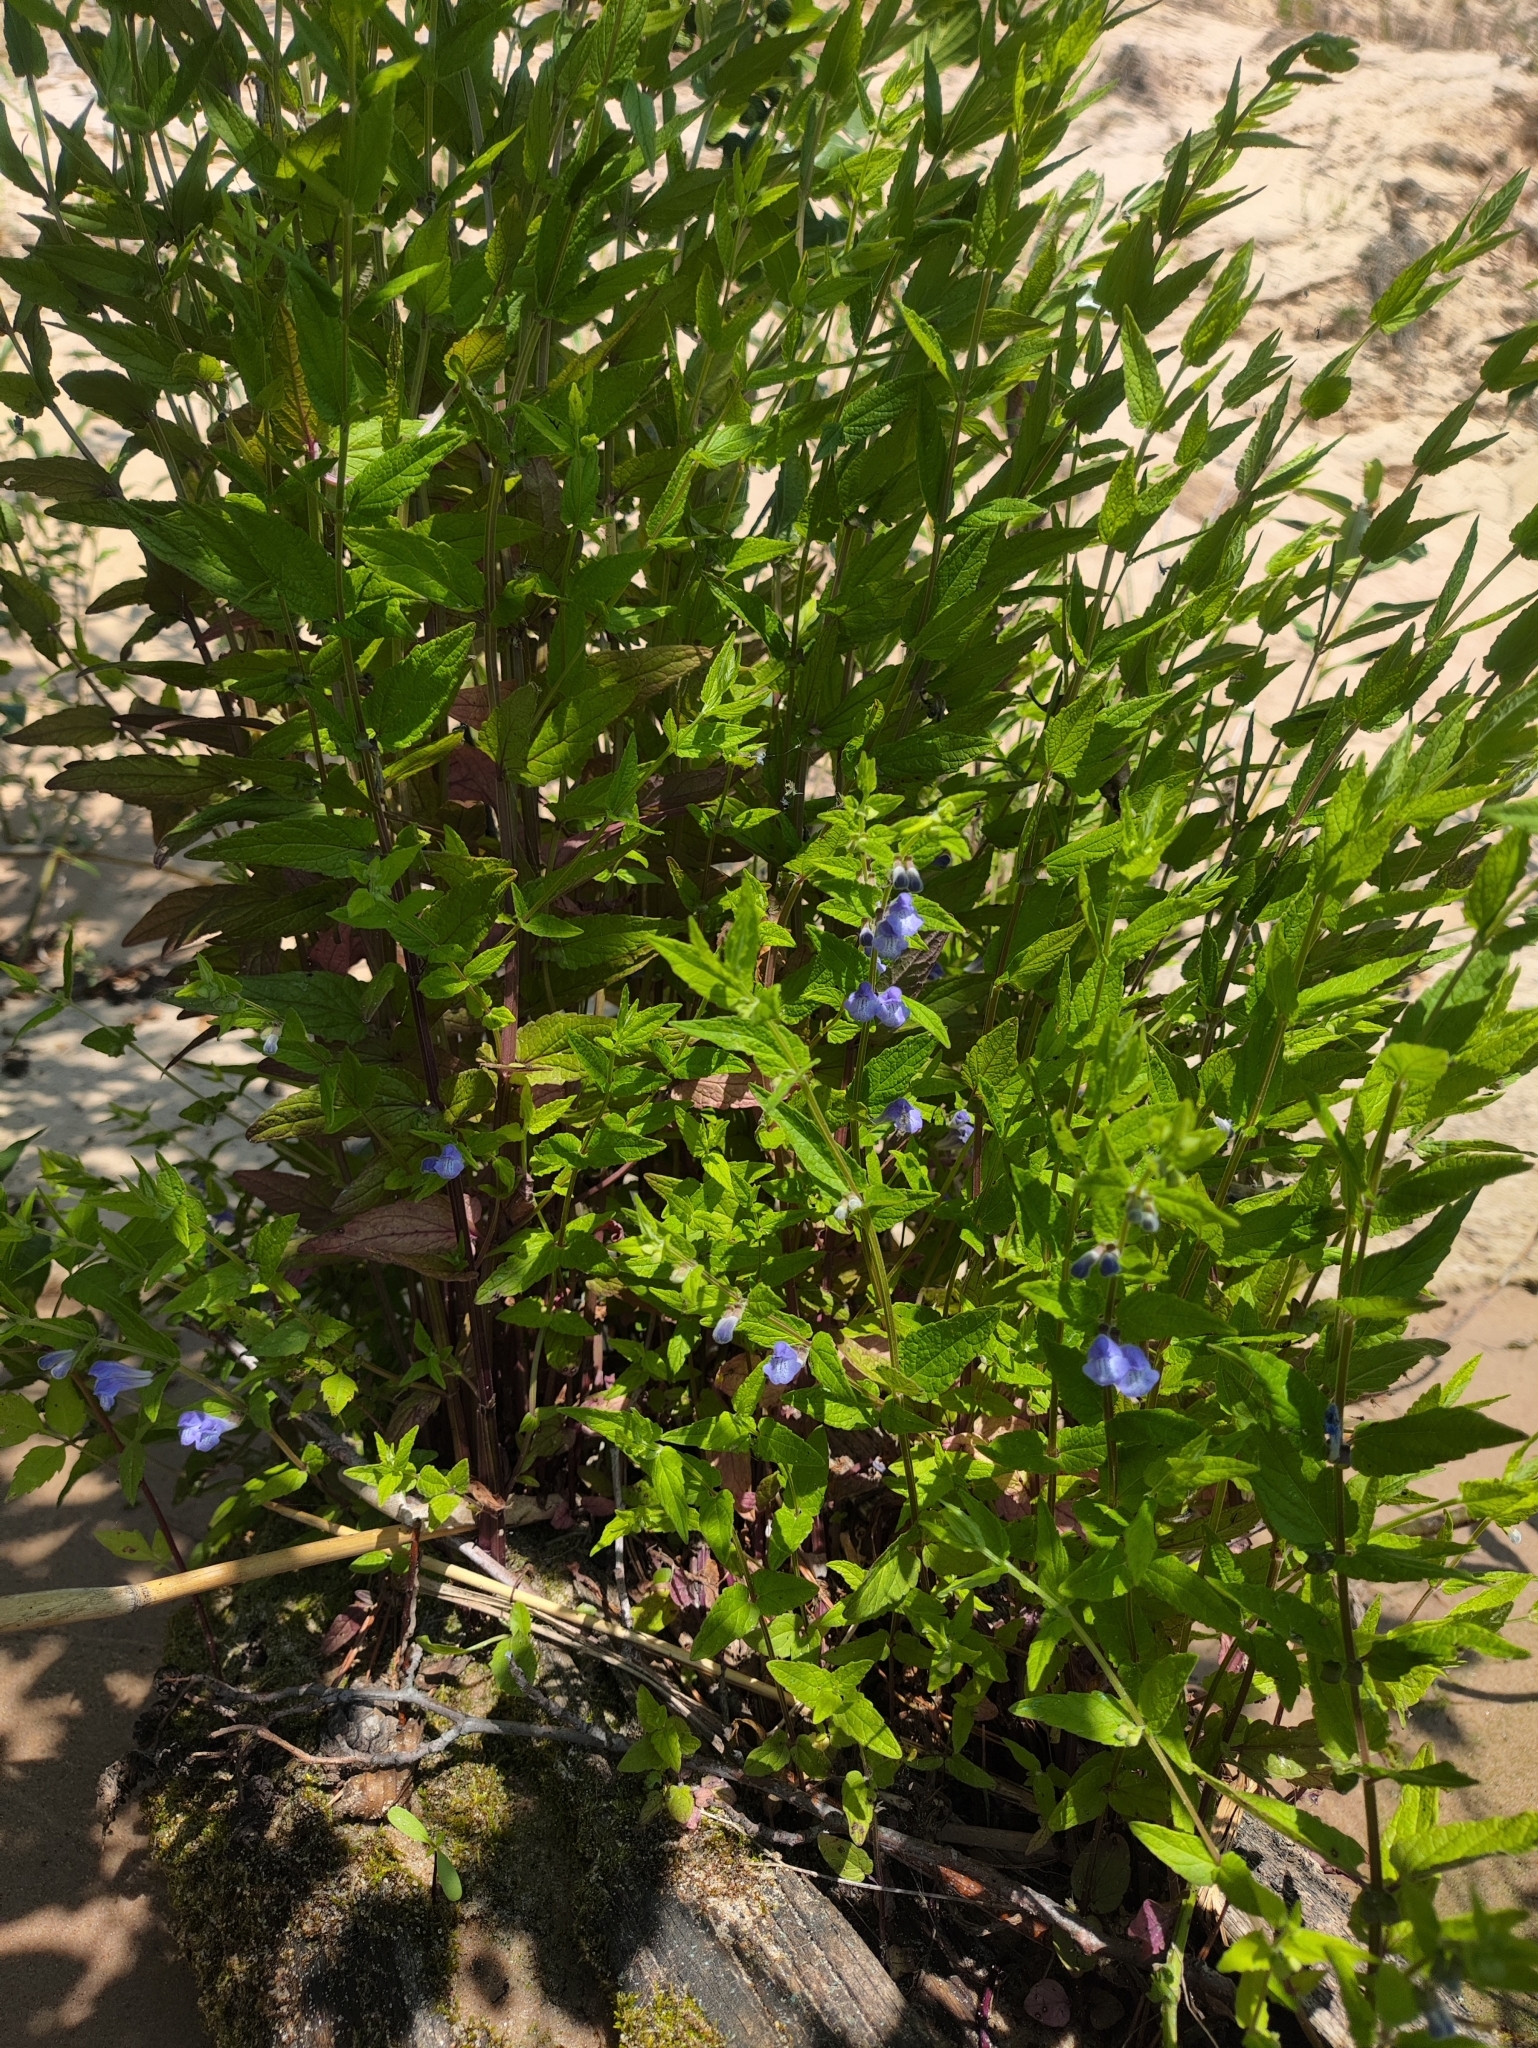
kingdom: Plantae
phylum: Tracheophyta
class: Magnoliopsida
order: Lamiales
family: Lamiaceae
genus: Scutellaria
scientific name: Scutellaria galericulata
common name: Skullcap
